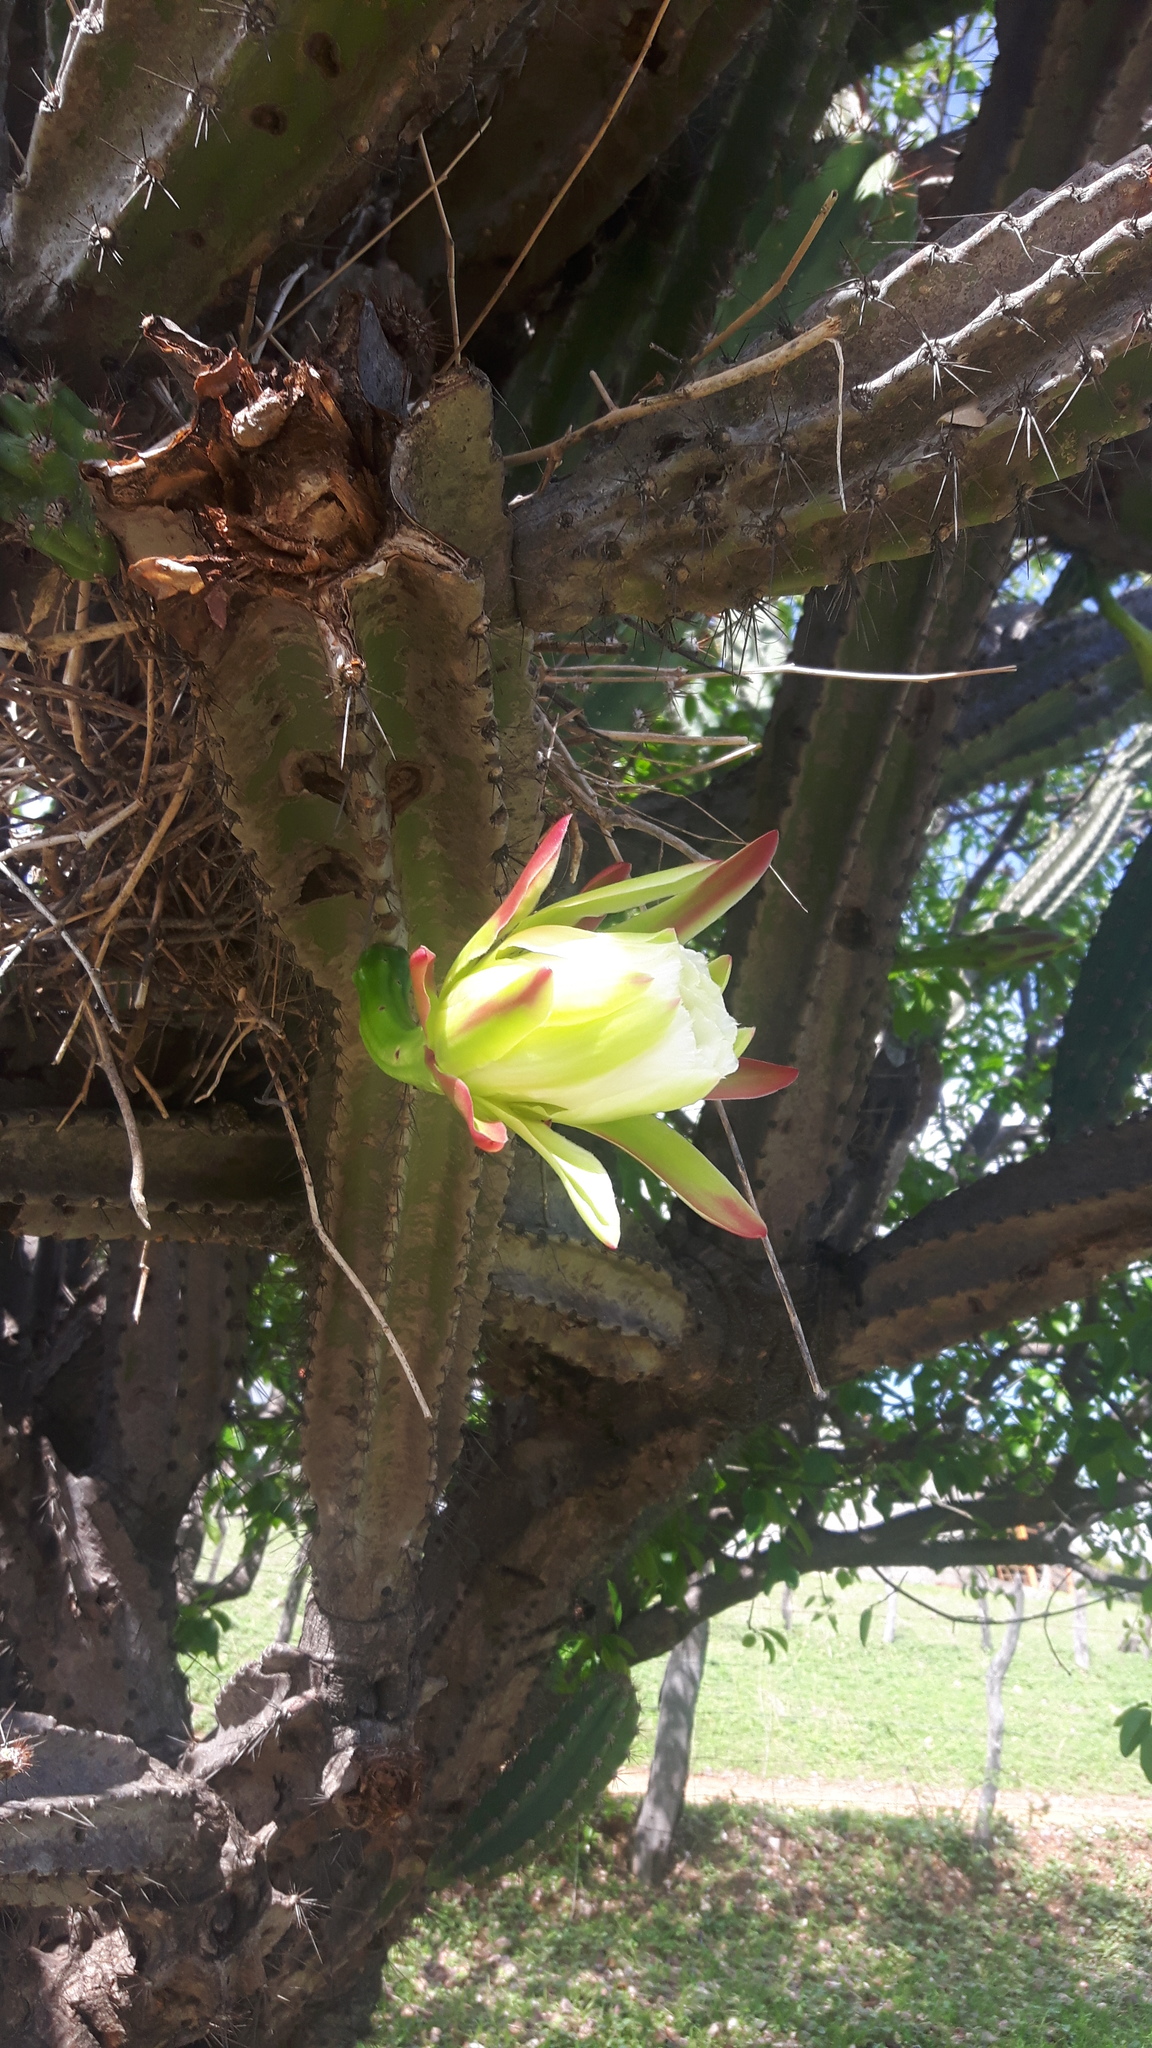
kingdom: Plantae
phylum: Tracheophyta
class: Magnoliopsida
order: Caryophyllales
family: Cactaceae
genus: Cereus
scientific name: Cereus jamacaru
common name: Queen-of-the-night
